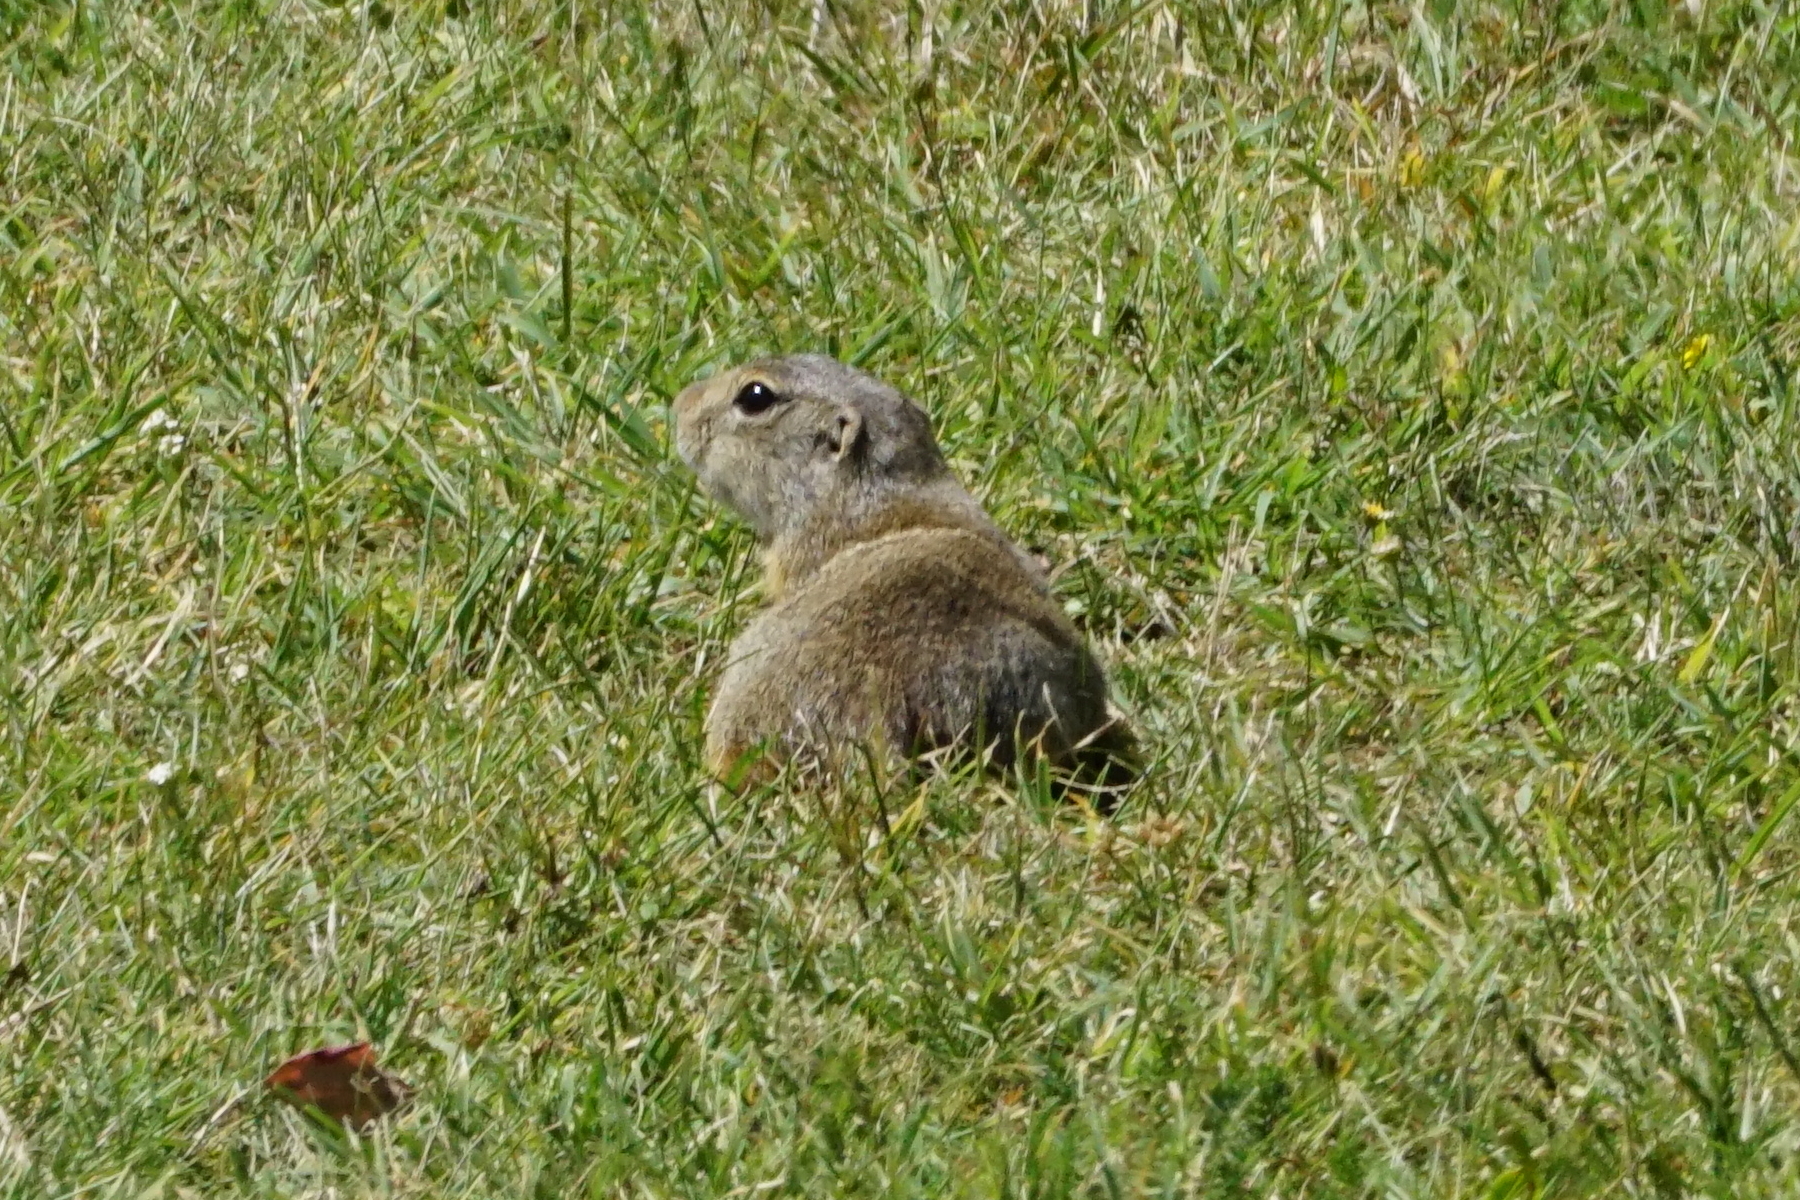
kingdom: Animalia
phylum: Chordata
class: Mammalia
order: Rodentia
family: Sciuridae
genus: Spermophilus
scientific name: Spermophilus citellus
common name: European ground squirrel
